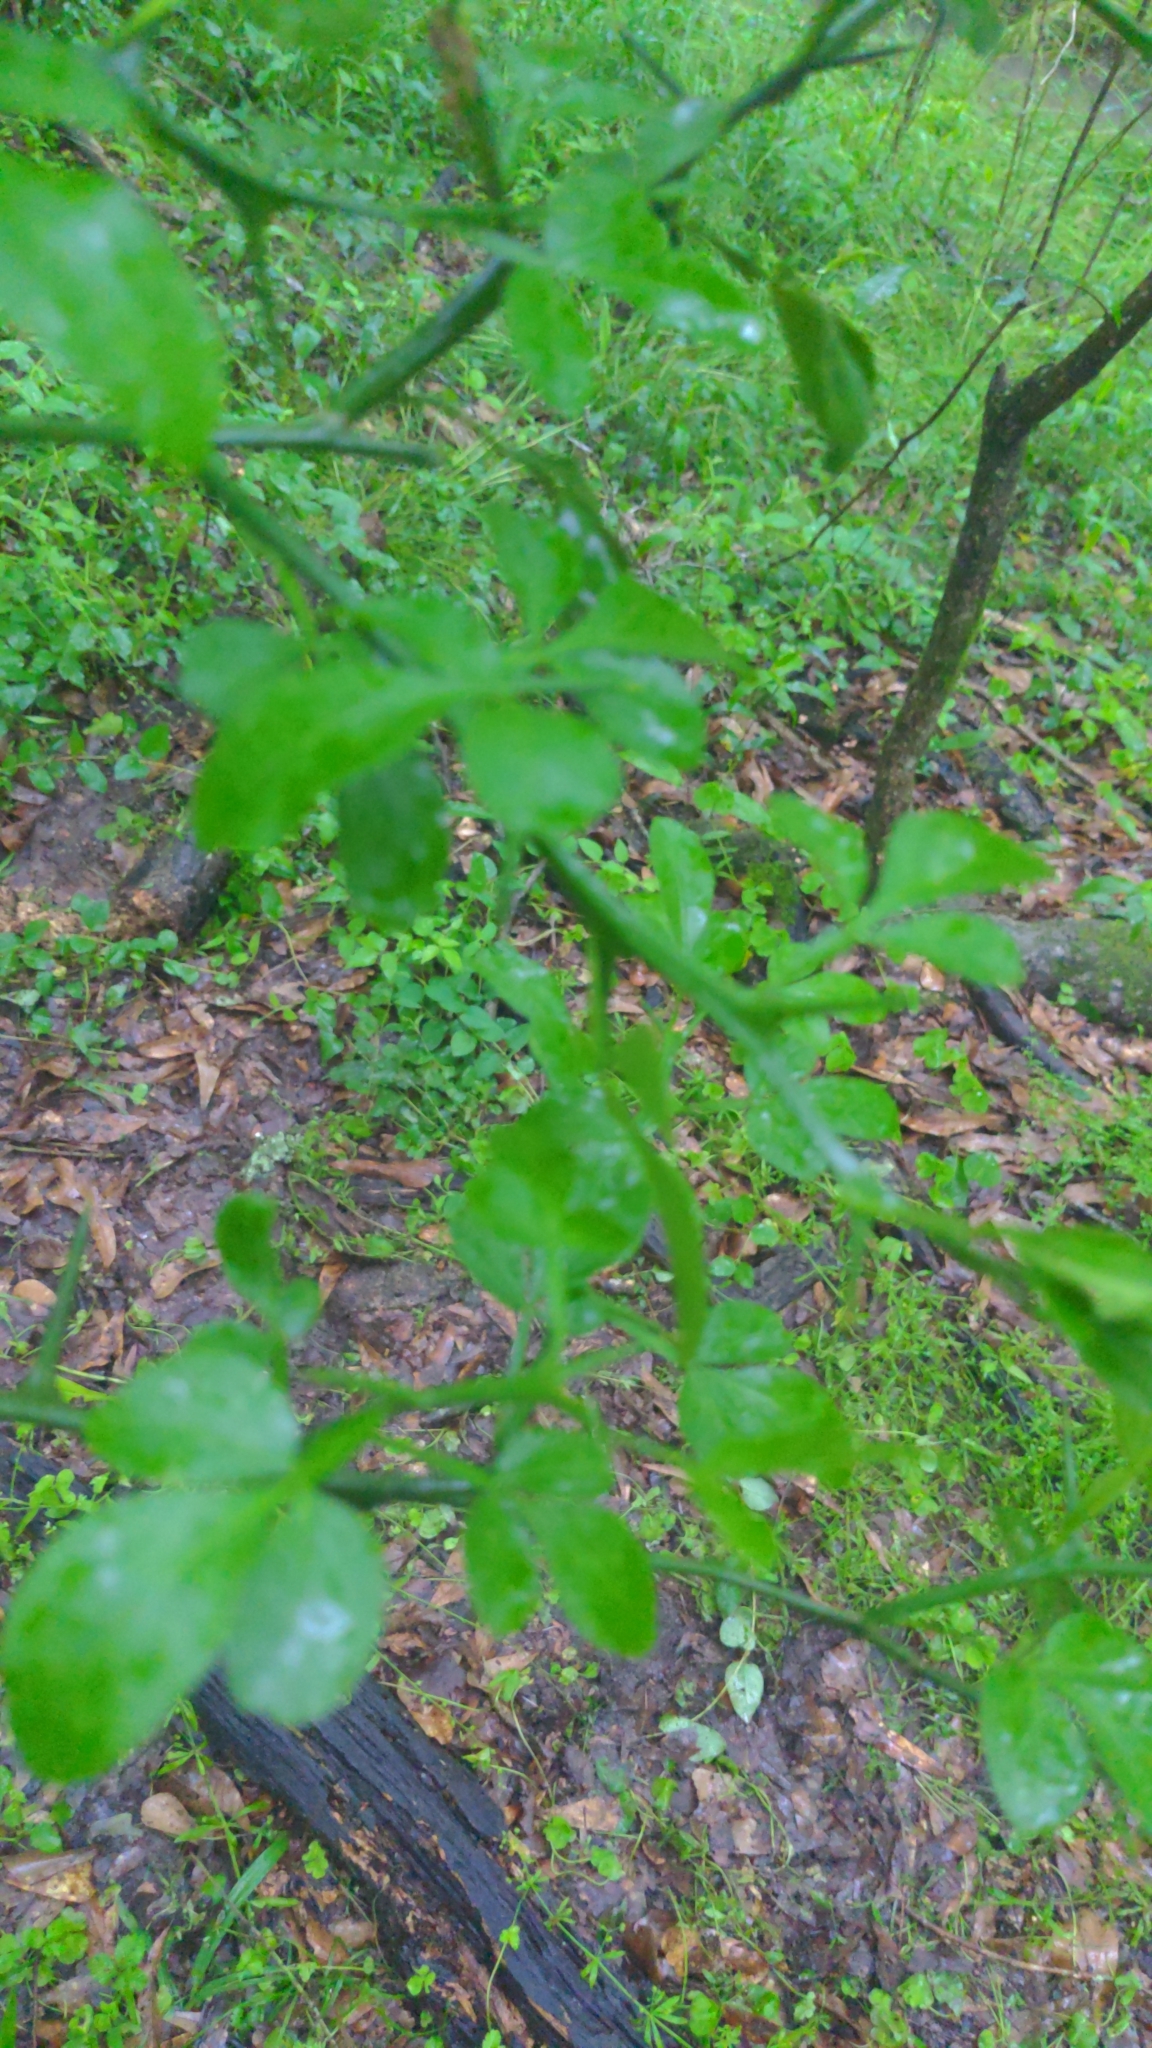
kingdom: Plantae
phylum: Tracheophyta
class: Magnoliopsida
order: Sapindales
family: Rutaceae
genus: Citrus
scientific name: Citrus trifoliata
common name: Japanese bitter-orange
